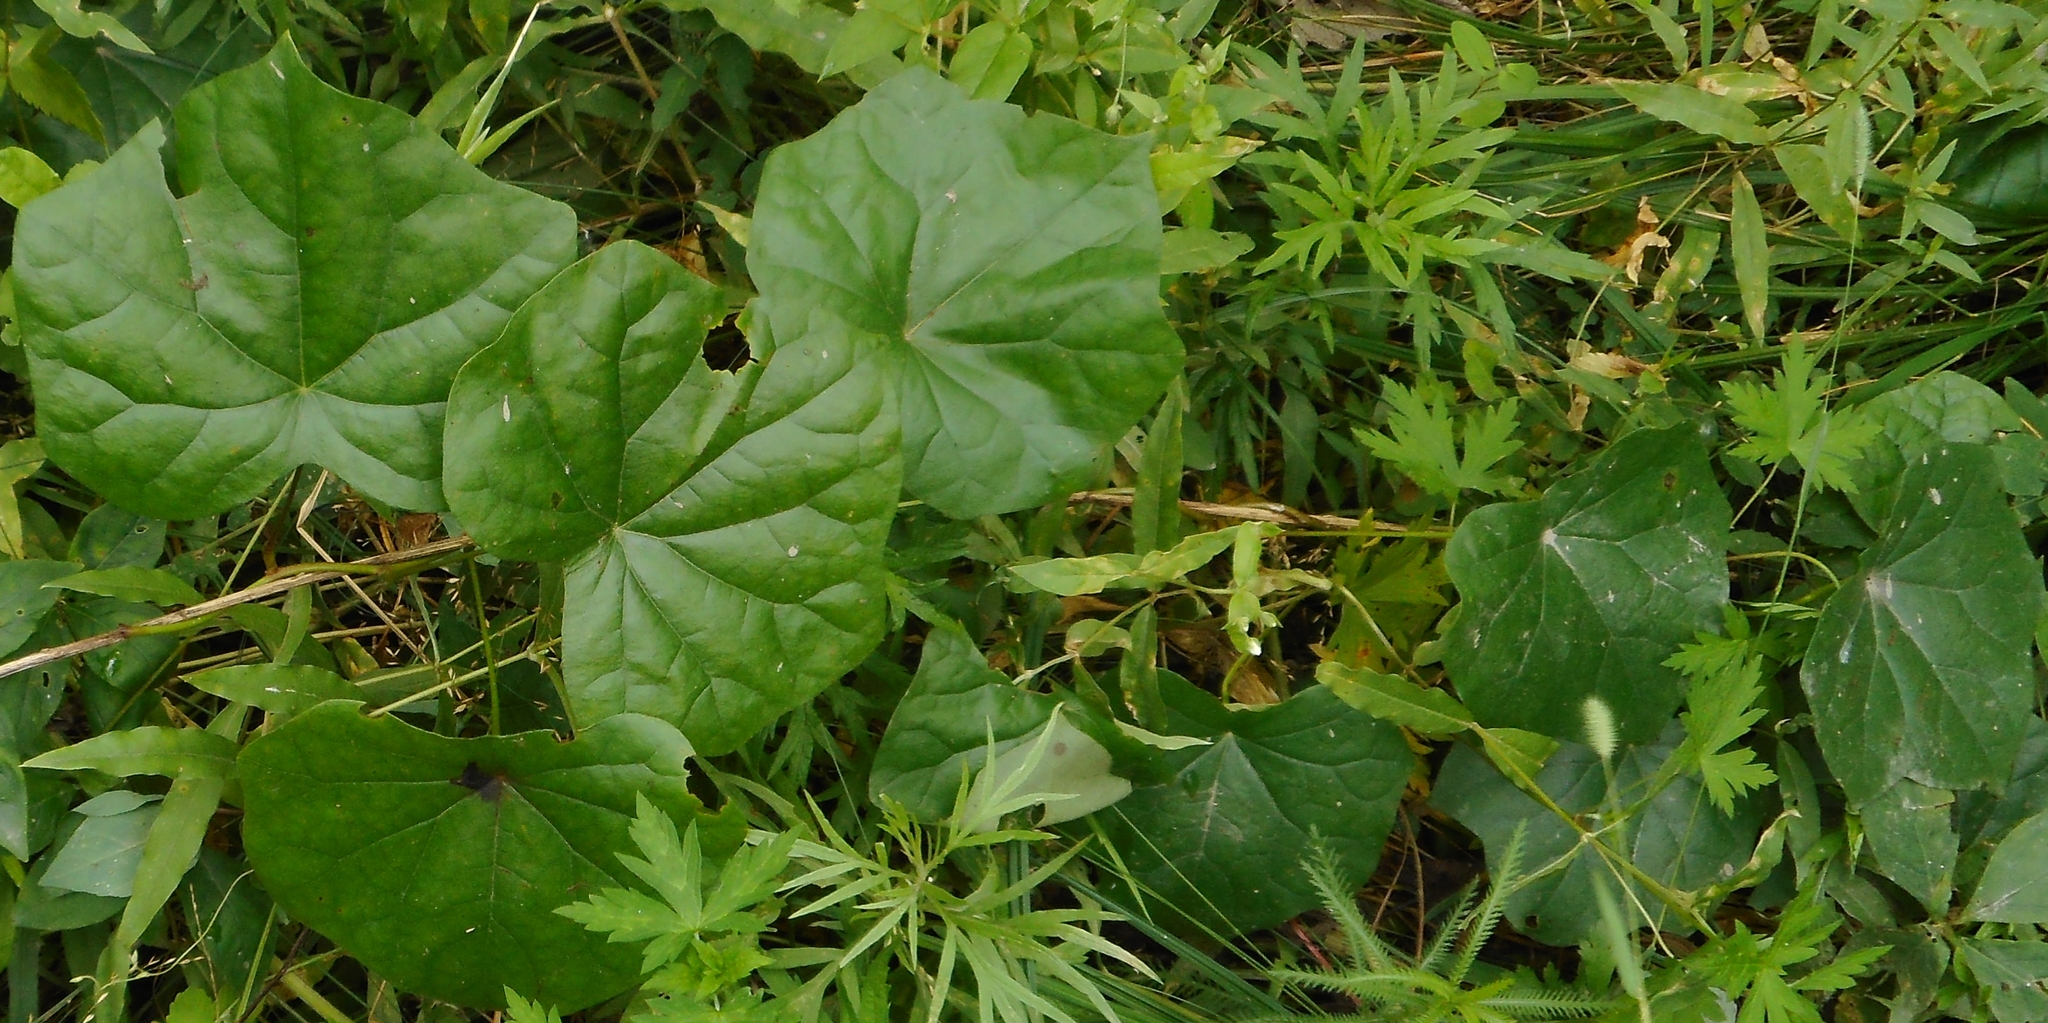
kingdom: Plantae
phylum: Tracheophyta
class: Magnoliopsida
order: Ranunculales
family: Menispermaceae
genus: Menispermum
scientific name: Menispermum dauricum
